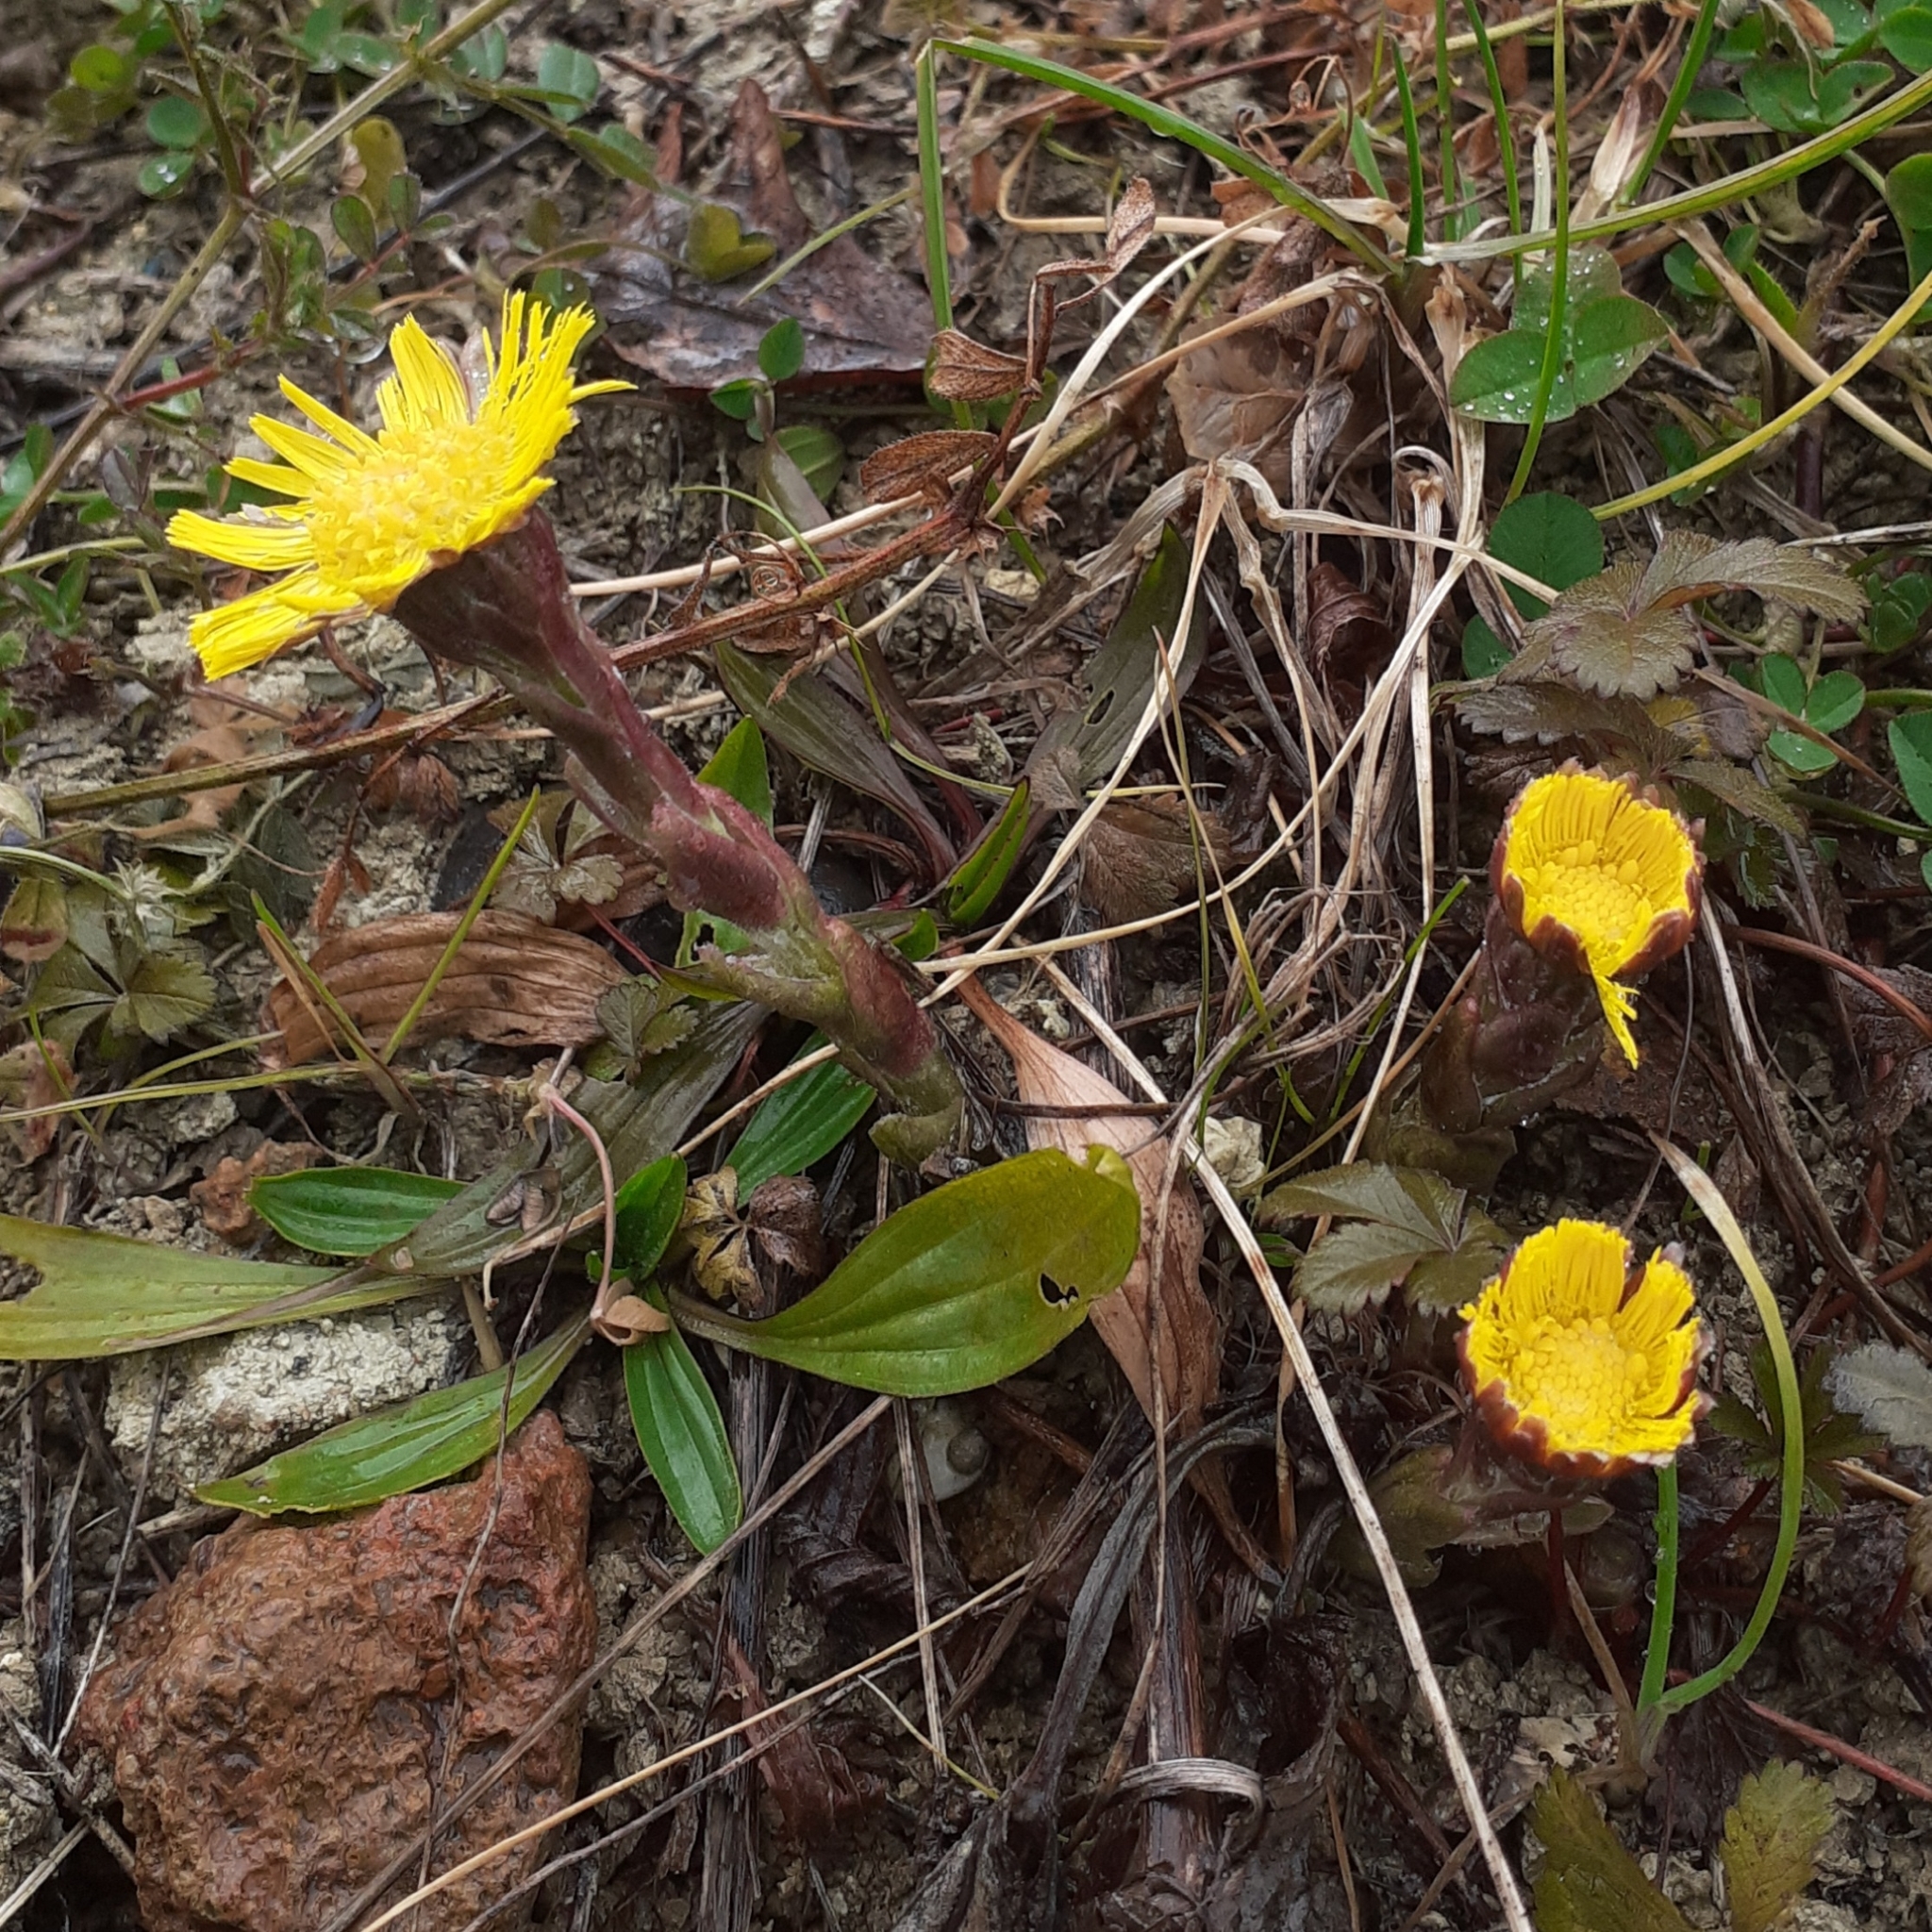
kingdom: Plantae
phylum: Tracheophyta
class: Magnoliopsida
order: Asterales
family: Asteraceae
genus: Tussilago
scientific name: Tussilago farfara
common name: Coltsfoot
